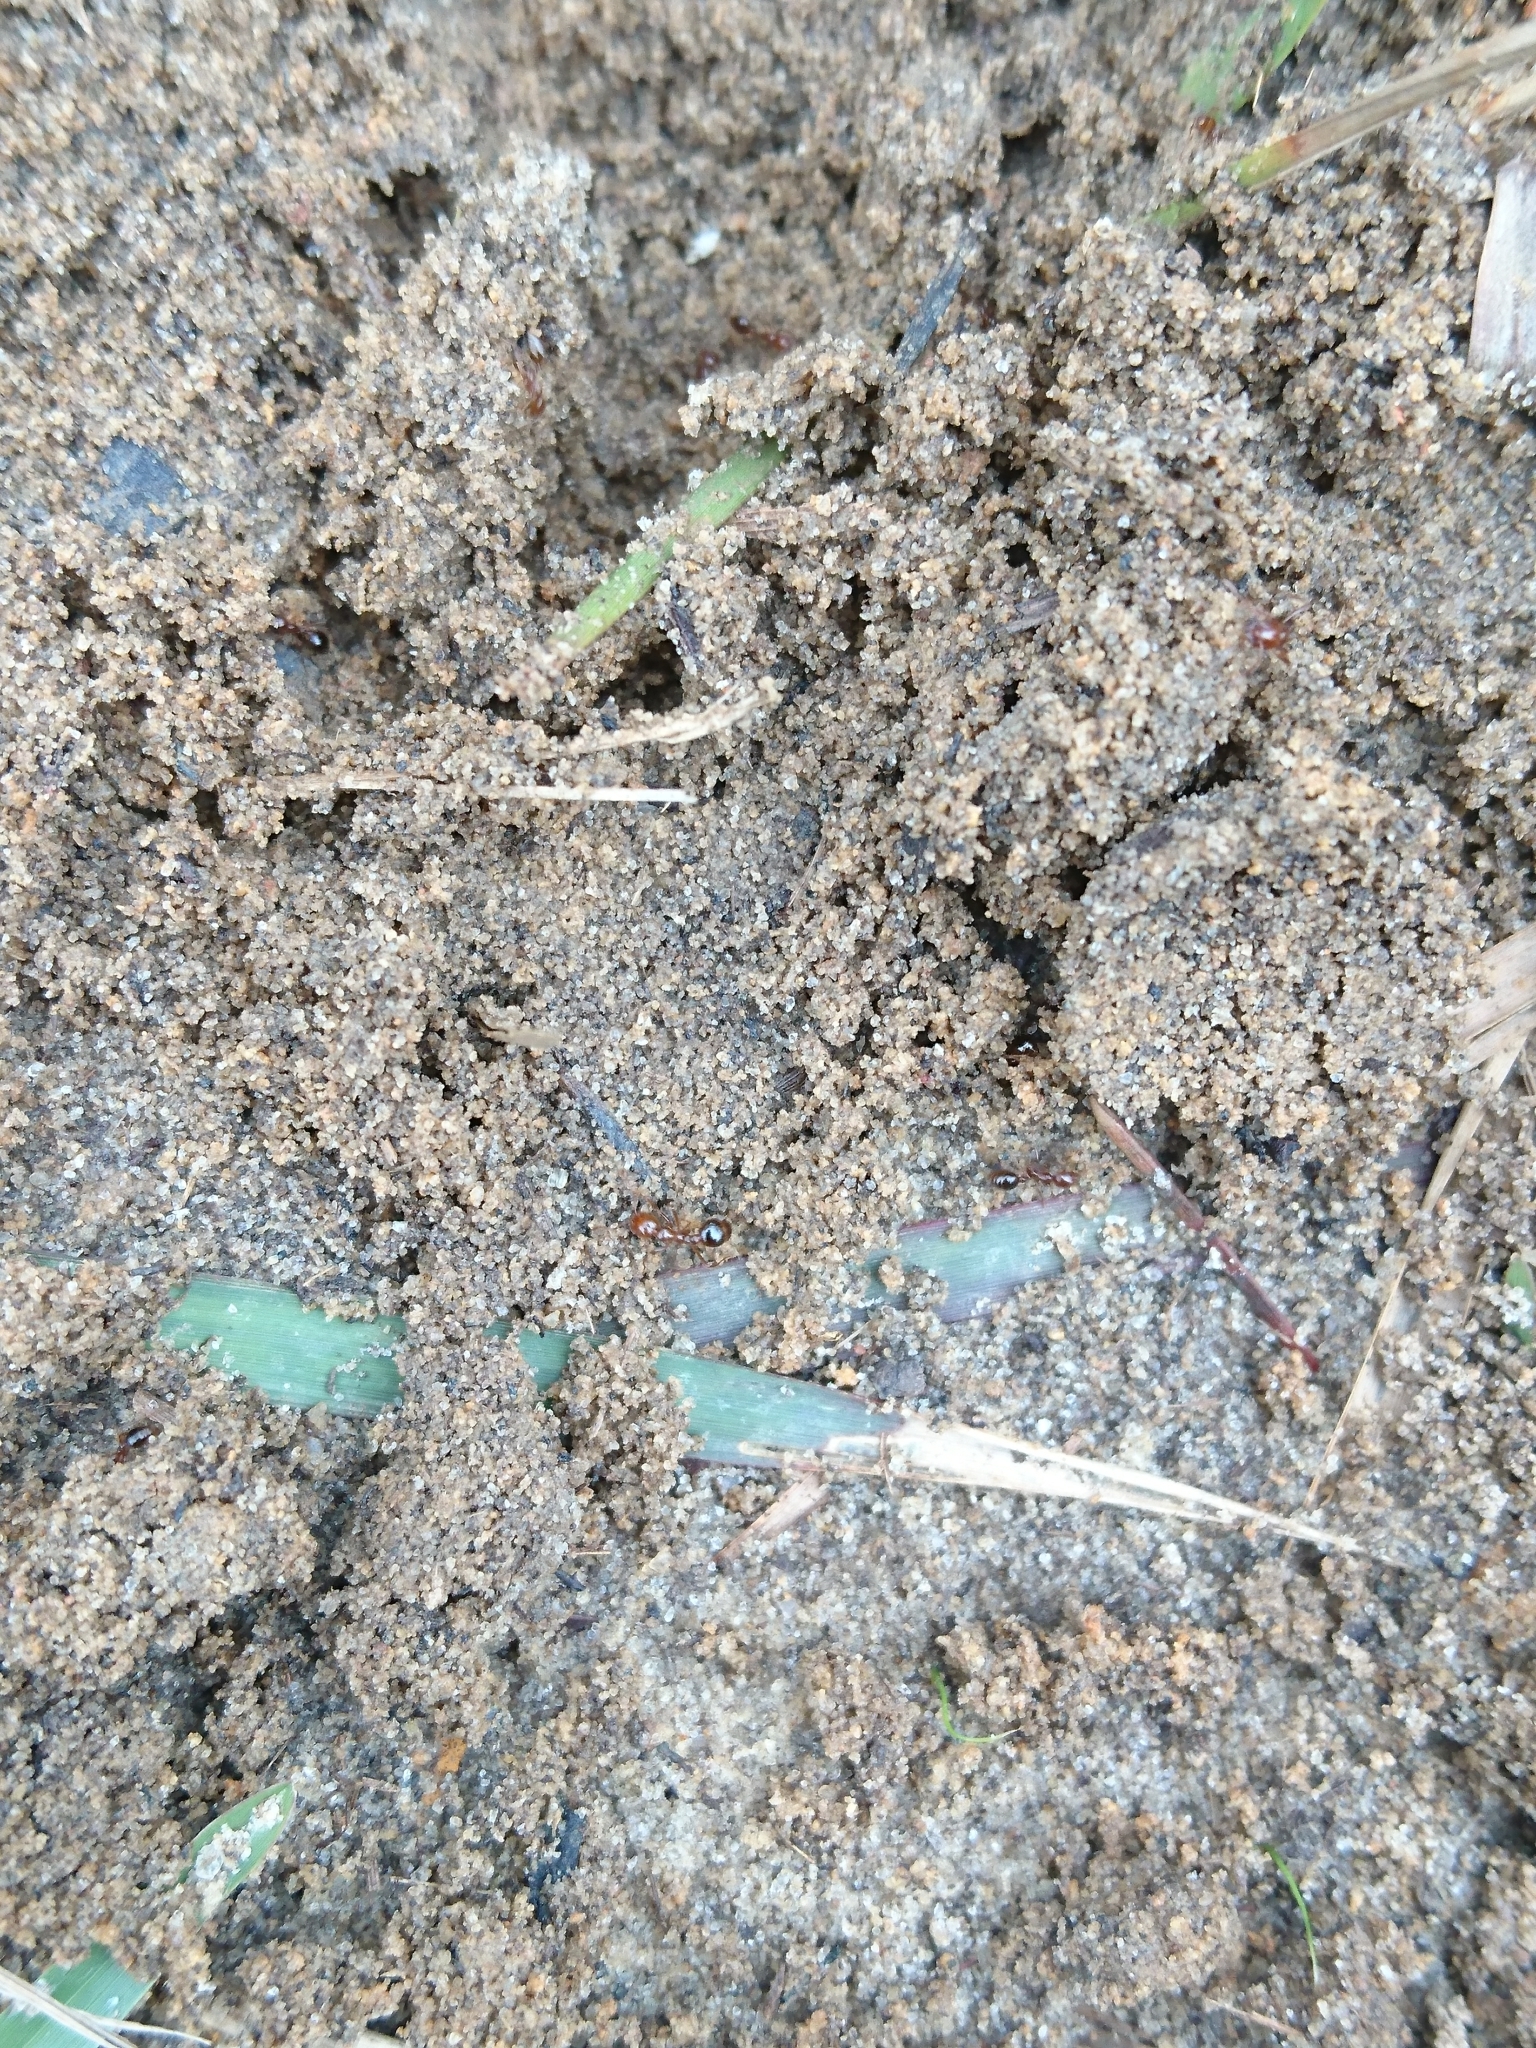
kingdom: Animalia
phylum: Arthropoda
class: Insecta
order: Hymenoptera
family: Formicidae
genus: Solenopsis
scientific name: Solenopsis invicta
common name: Red imported fire ant
